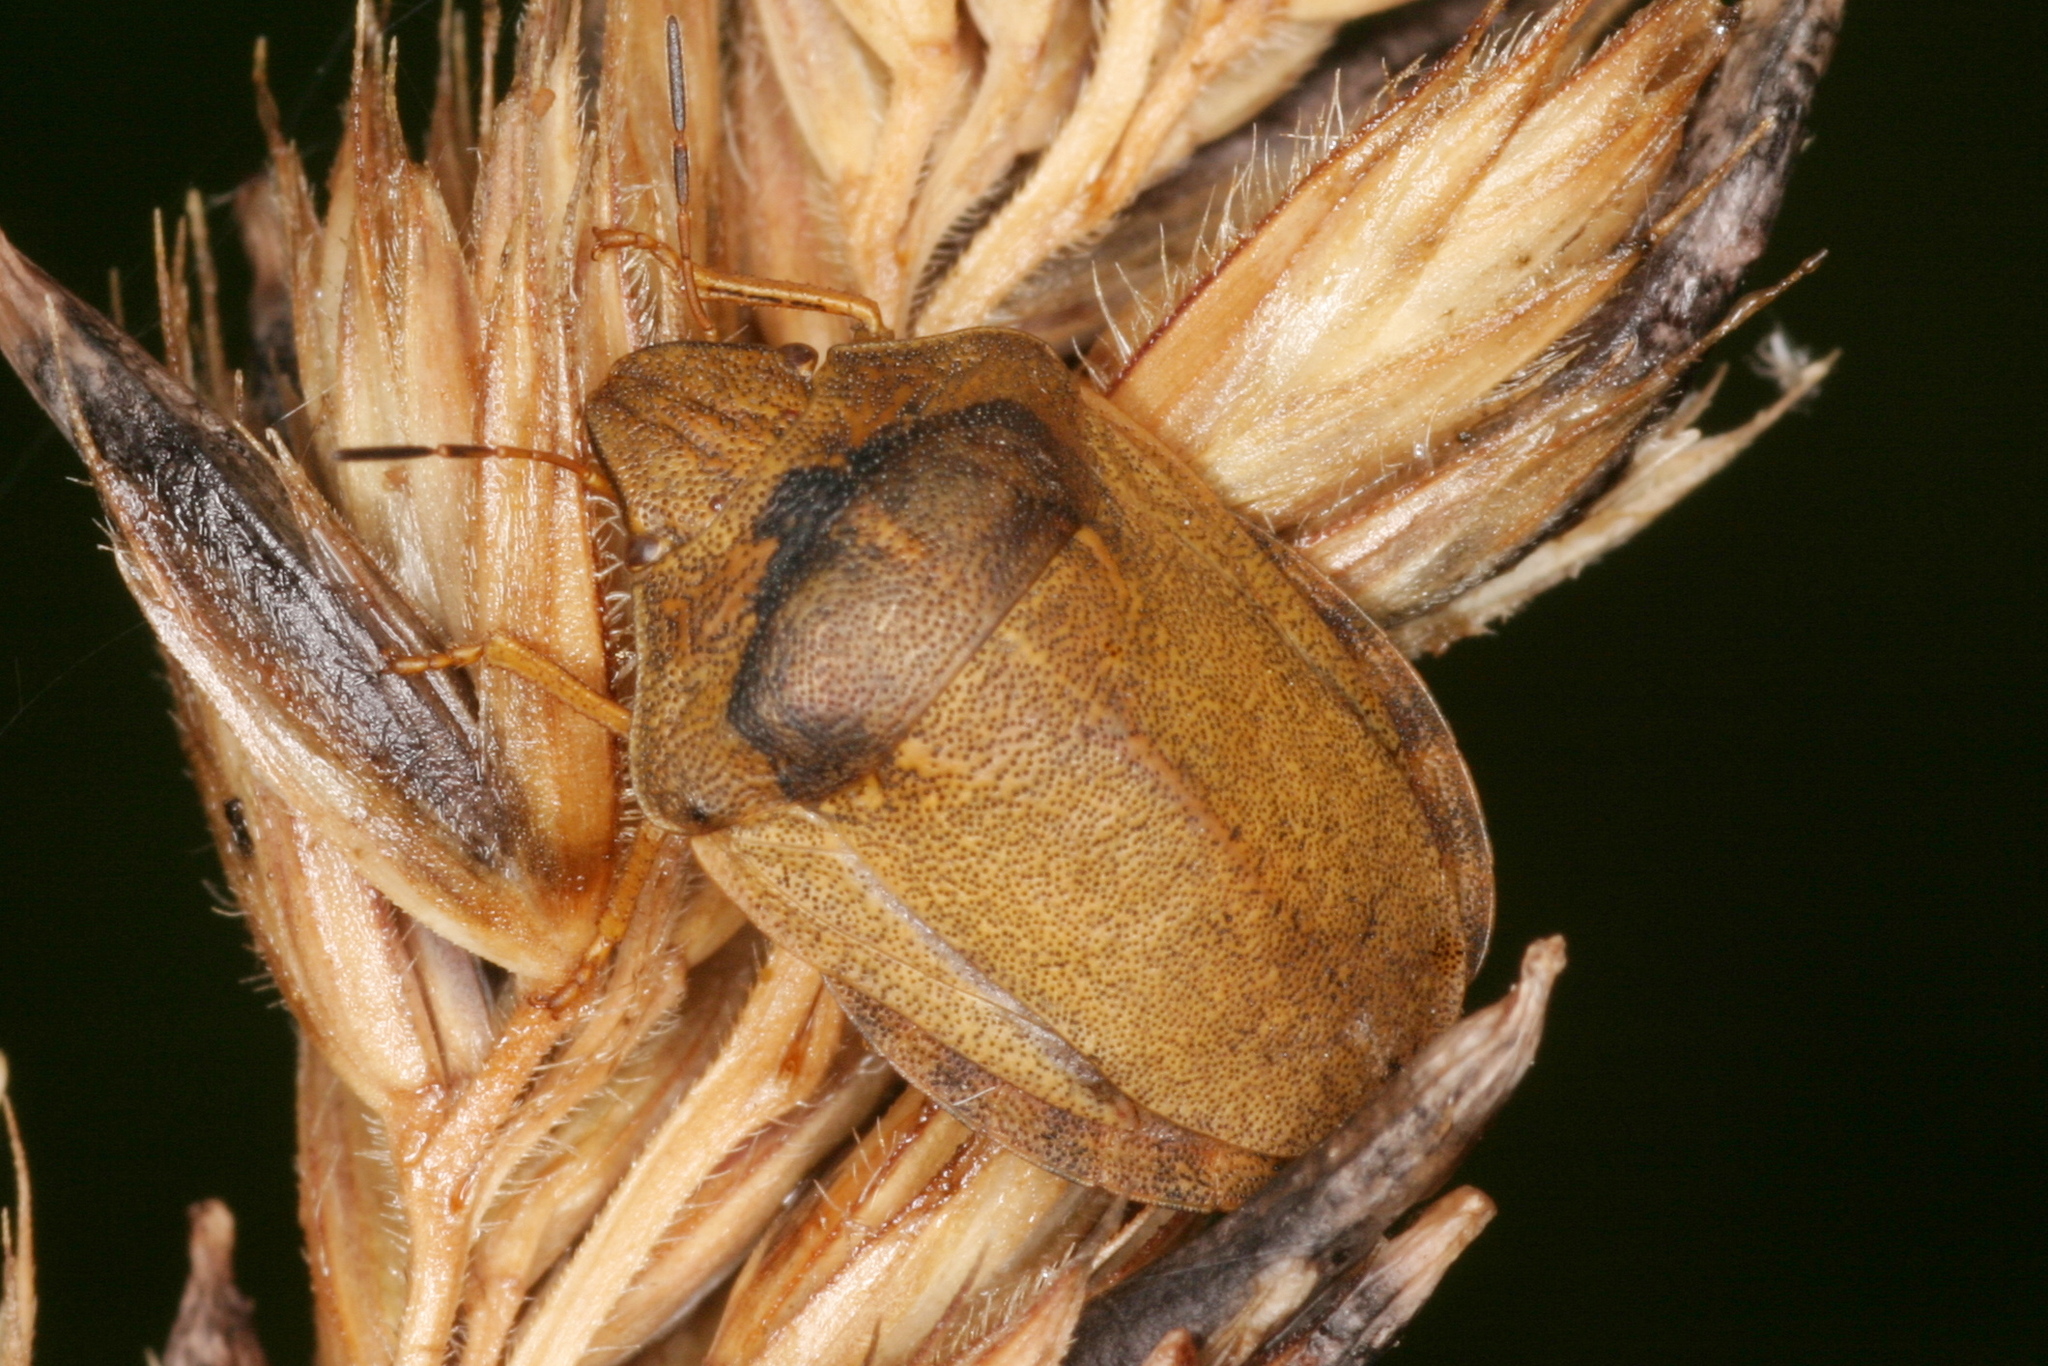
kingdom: Animalia
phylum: Arthropoda
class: Insecta
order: Hemiptera
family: Scutelleridae
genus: Eurygaster
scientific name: Eurygaster testudinaria
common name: Tortoise bug
